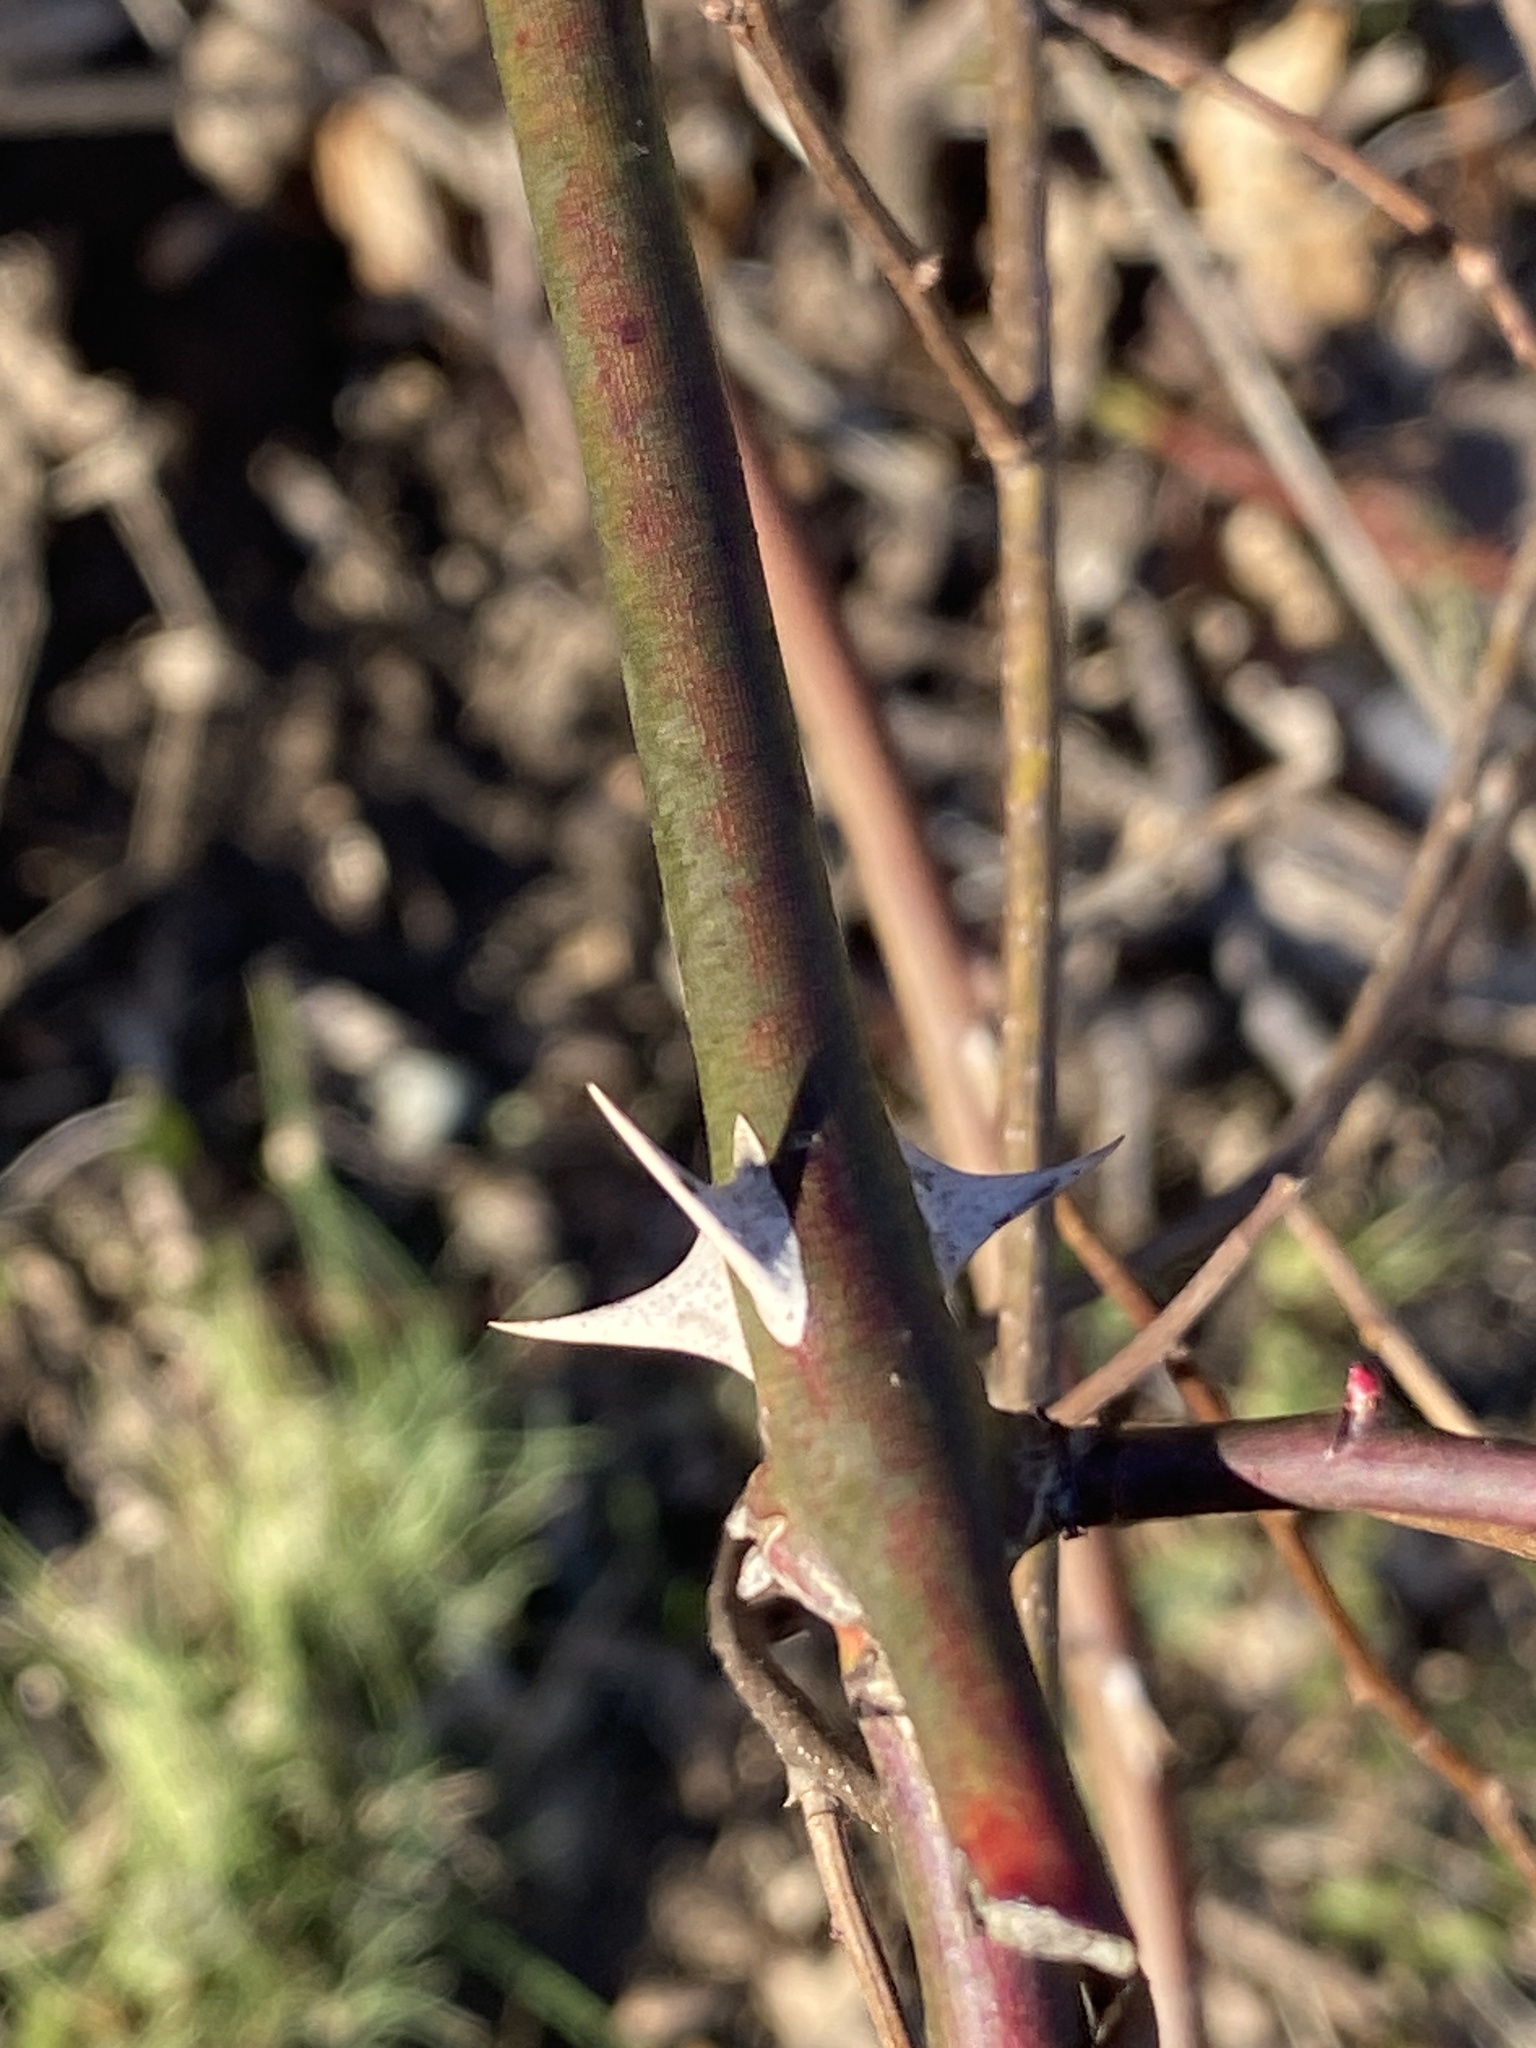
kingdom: Plantae
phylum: Tracheophyta
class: Magnoliopsida
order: Rosales
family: Rosaceae
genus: Rosa
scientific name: Rosa multiflora
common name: Multiflora rose
